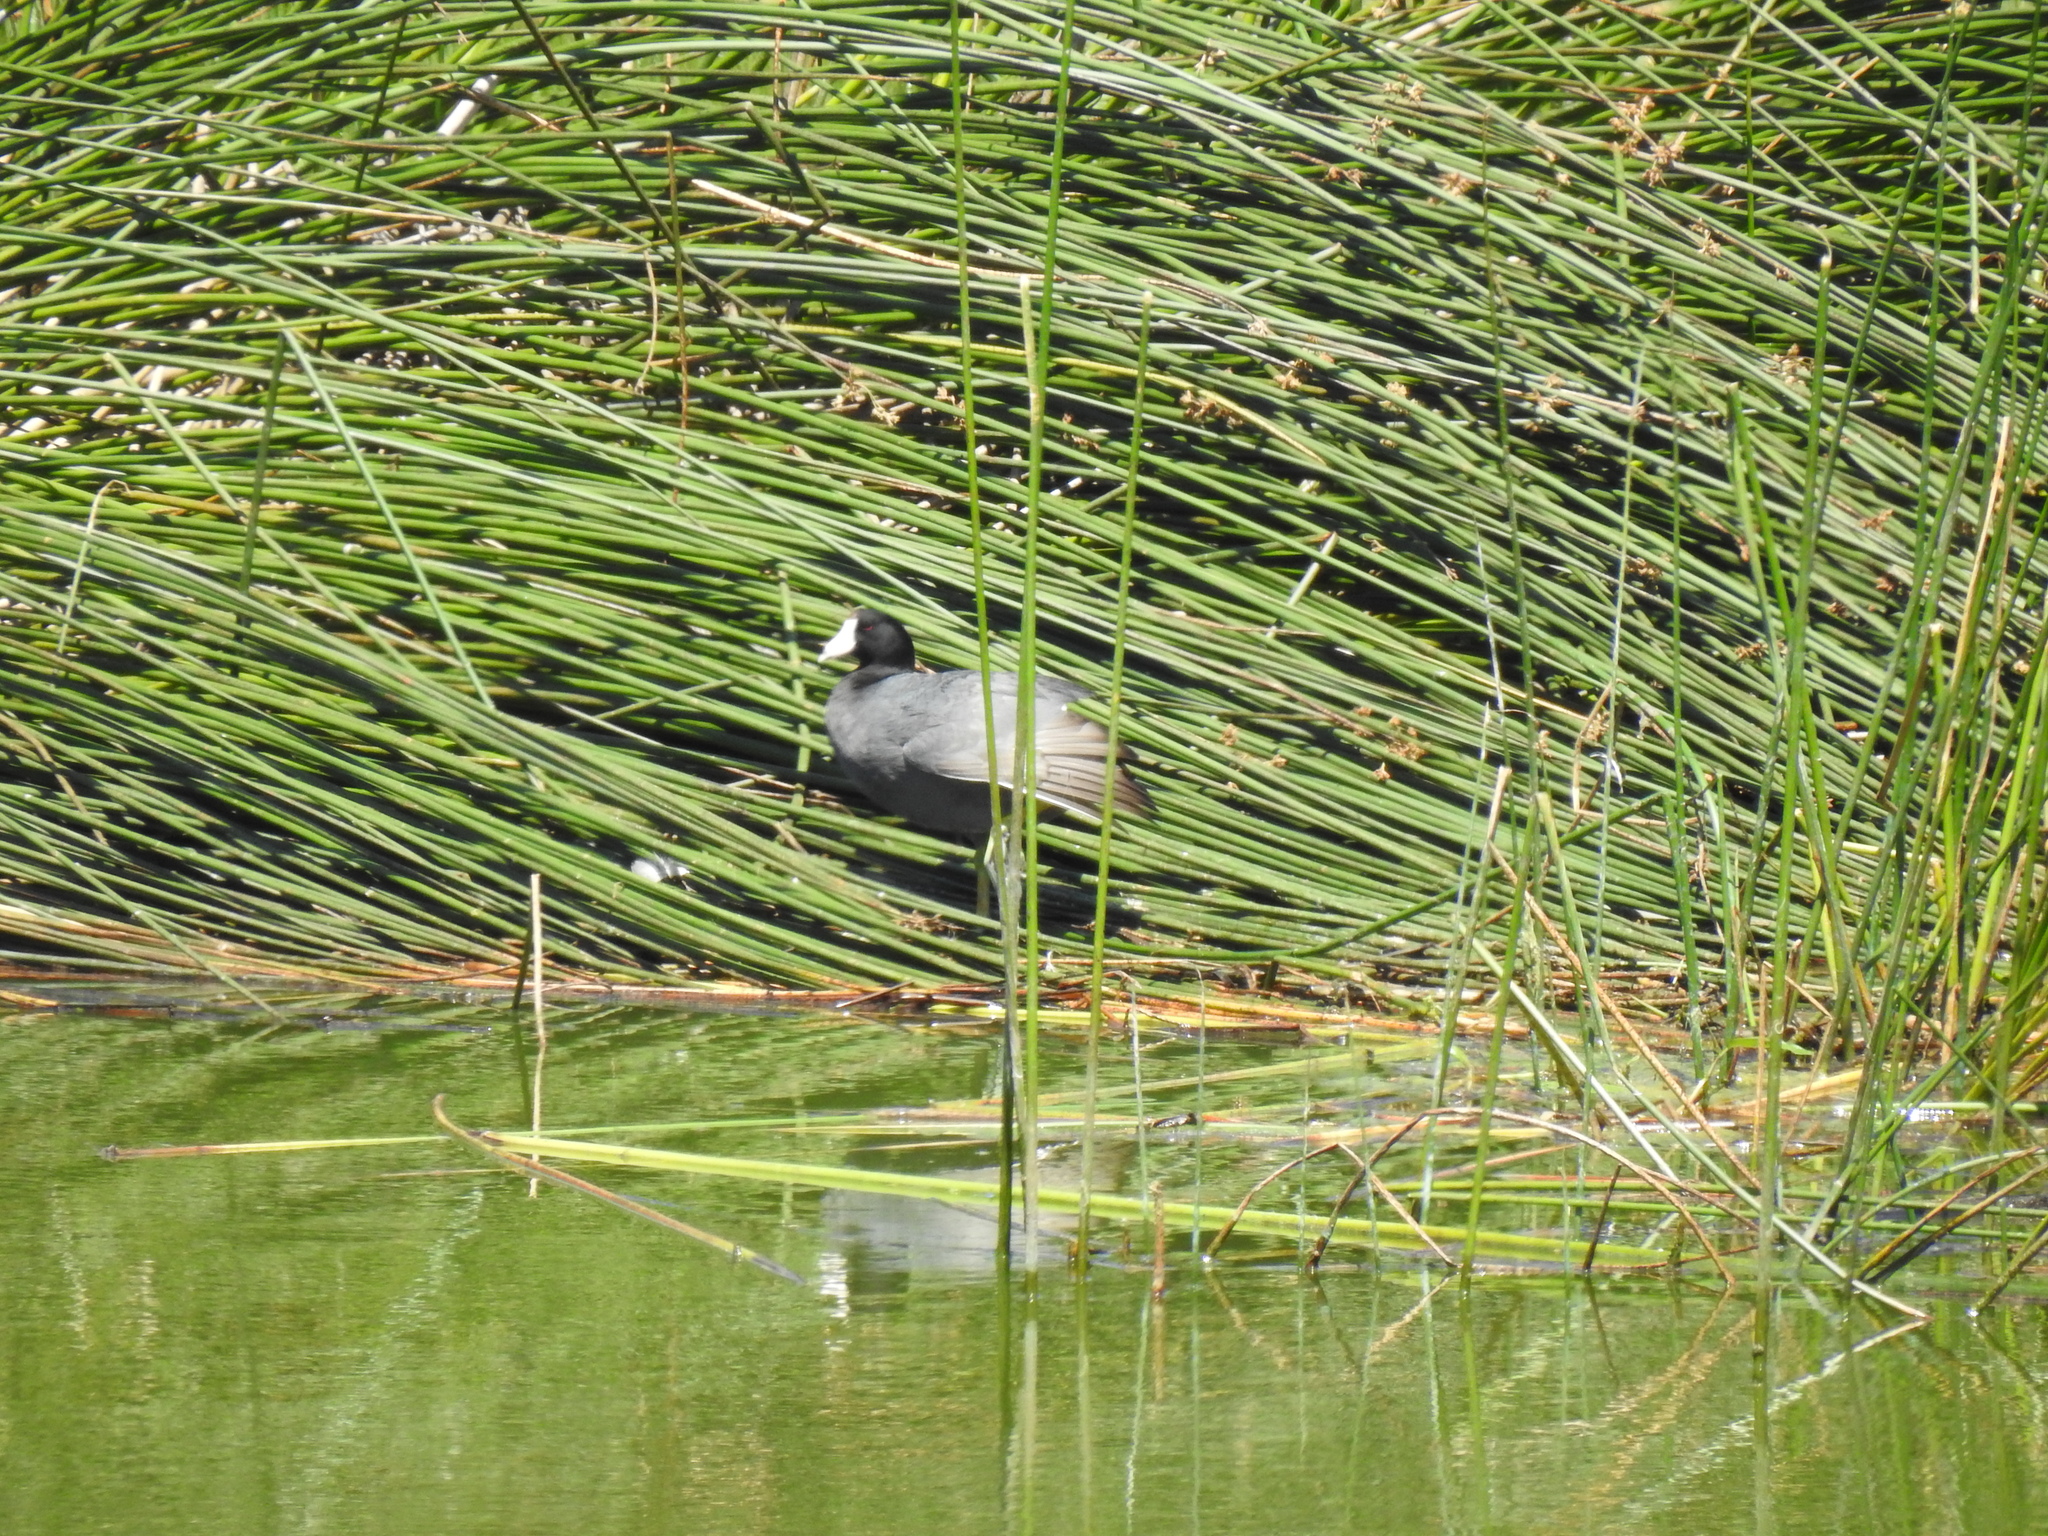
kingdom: Animalia
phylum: Chordata
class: Aves
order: Gruiformes
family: Rallidae
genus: Fulica
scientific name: Fulica americana
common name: American coot
